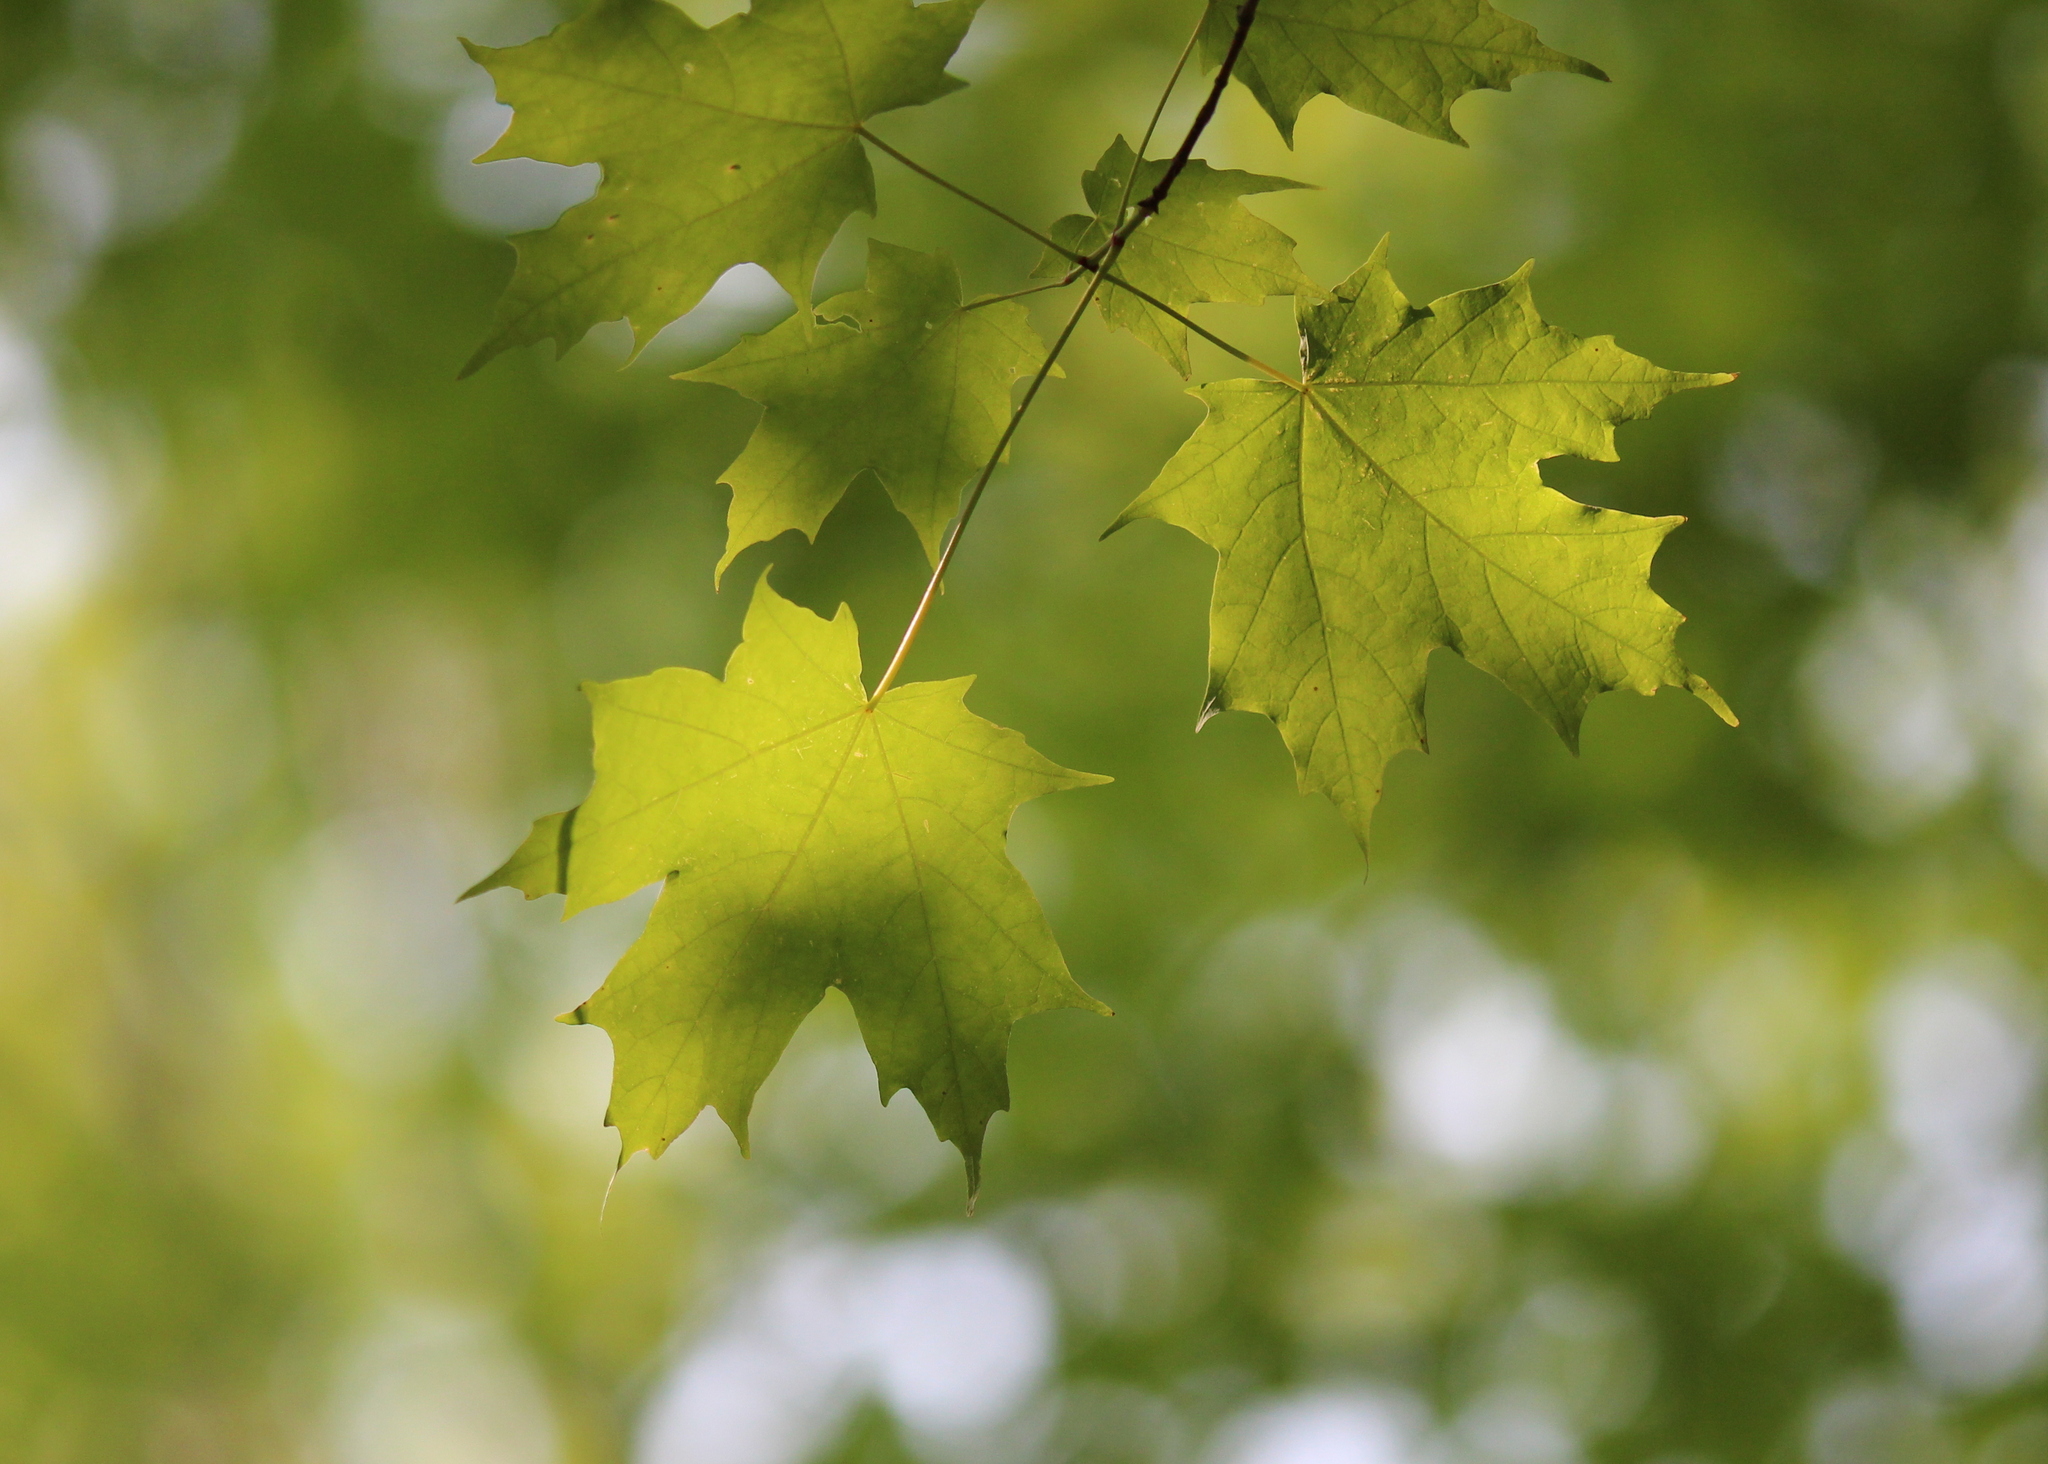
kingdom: Plantae
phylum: Tracheophyta
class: Magnoliopsida
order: Sapindales
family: Sapindaceae
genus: Acer
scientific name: Acer saccharum
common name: Sugar maple
